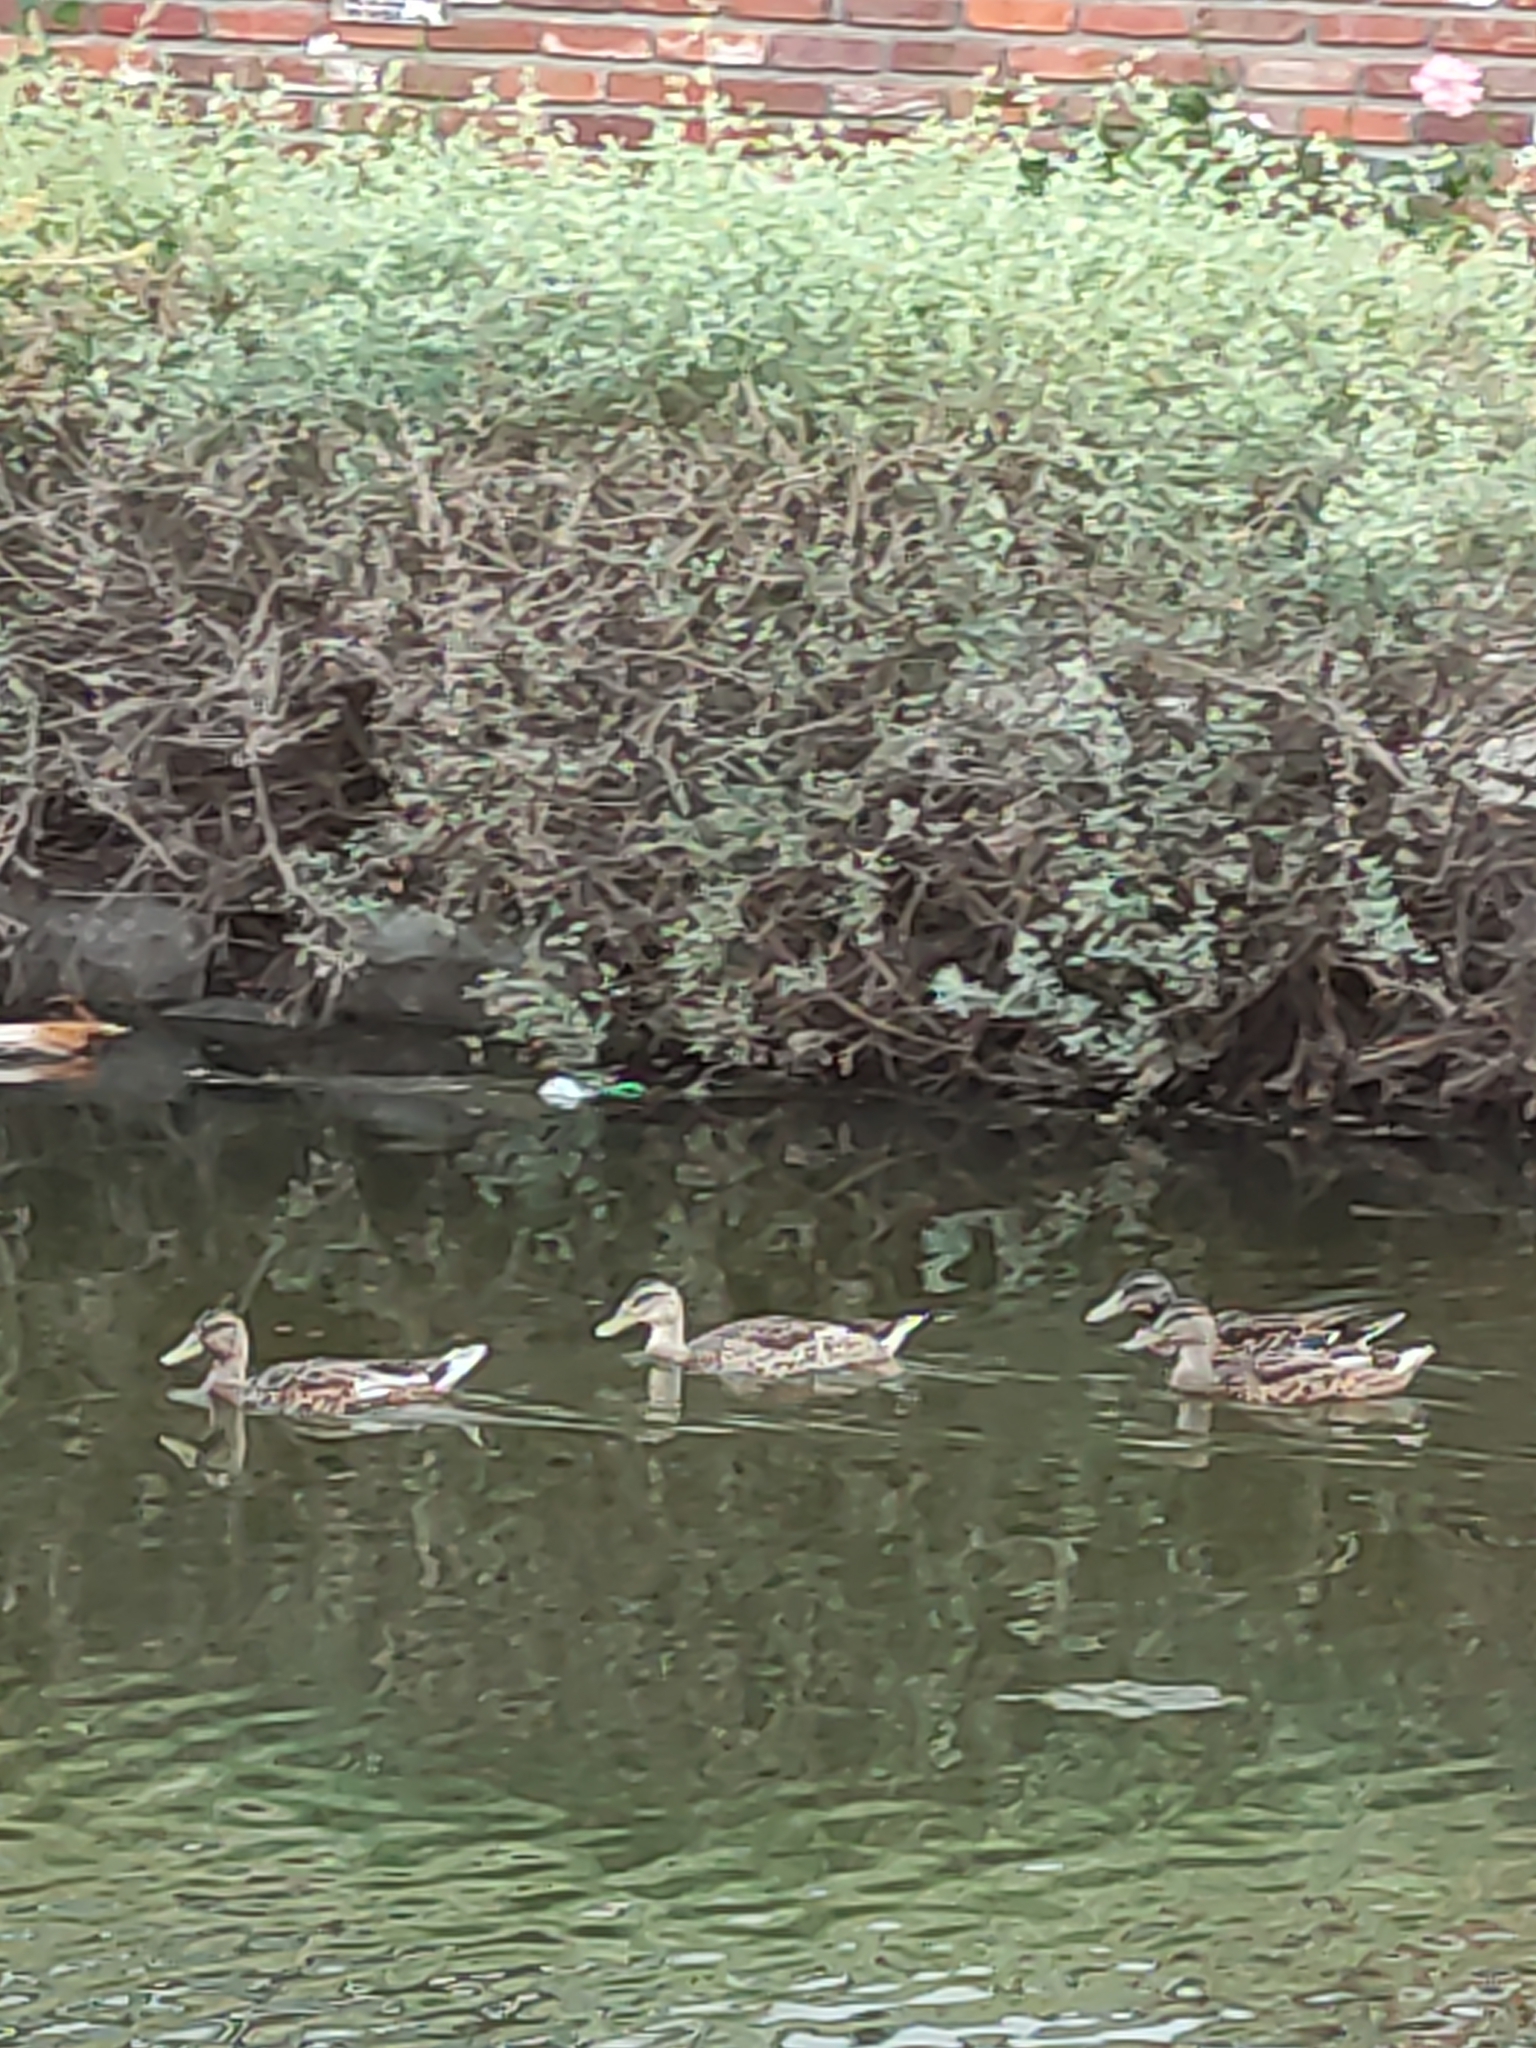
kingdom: Animalia
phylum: Chordata
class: Aves
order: Anseriformes
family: Anatidae
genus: Anas
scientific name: Anas platyrhynchos
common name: Mallard
